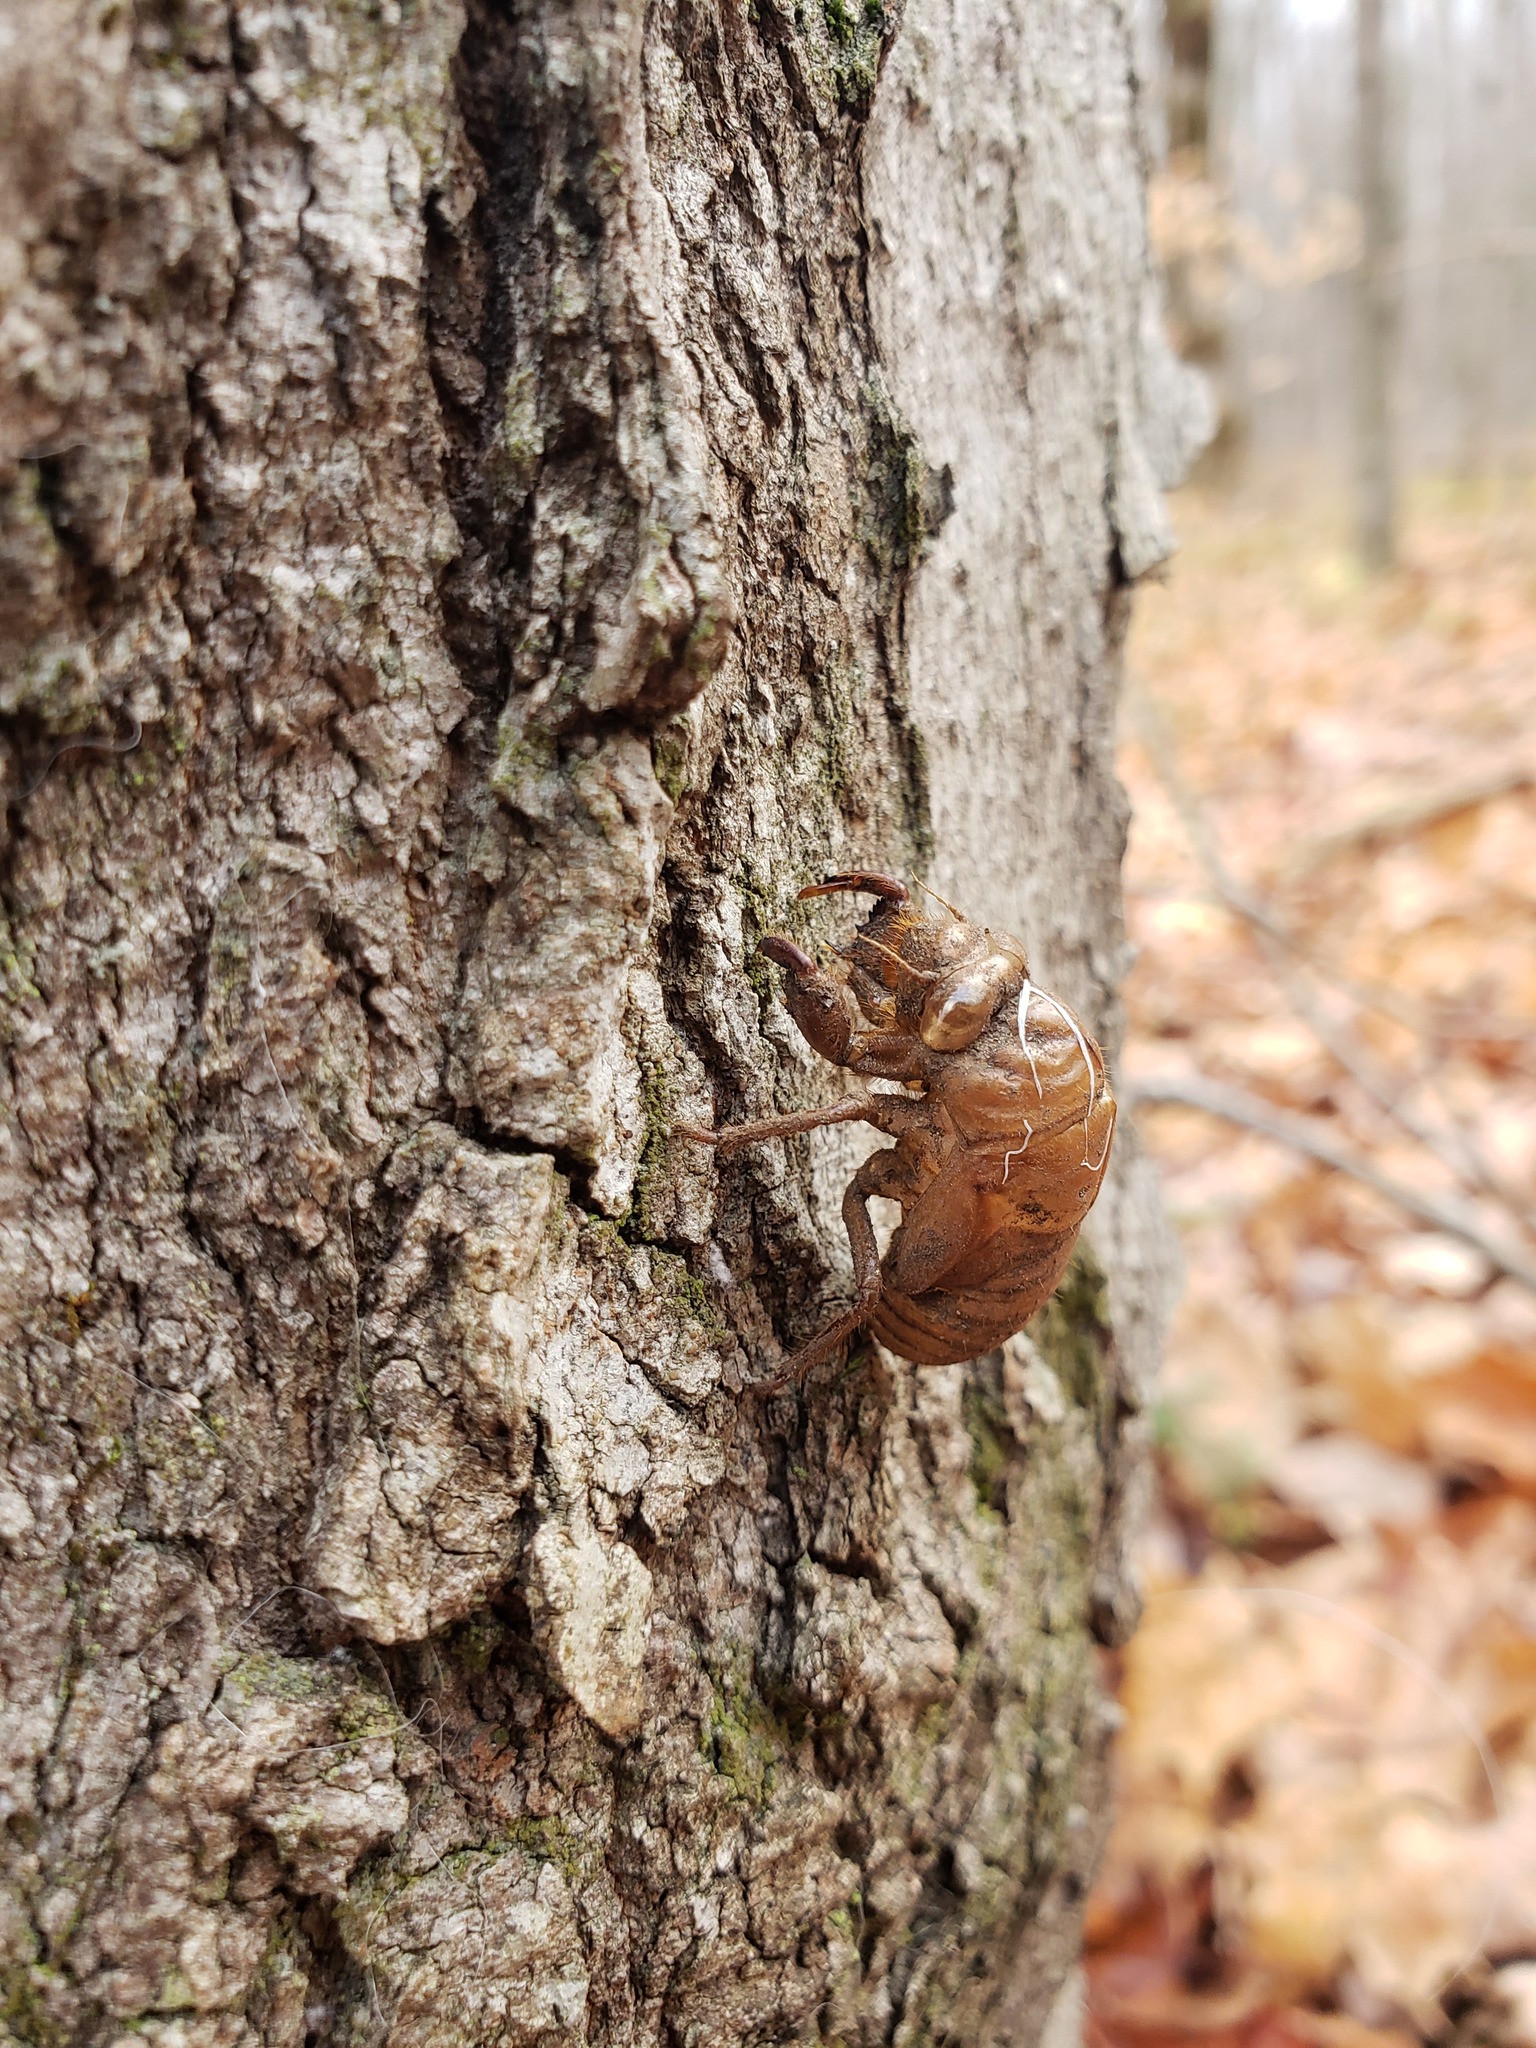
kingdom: Animalia
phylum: Arthropoda
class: Insecta
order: Hemiptera
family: Cicadidae
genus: Neotibicen
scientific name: Neotibicen canicularis
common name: God-day cicada
